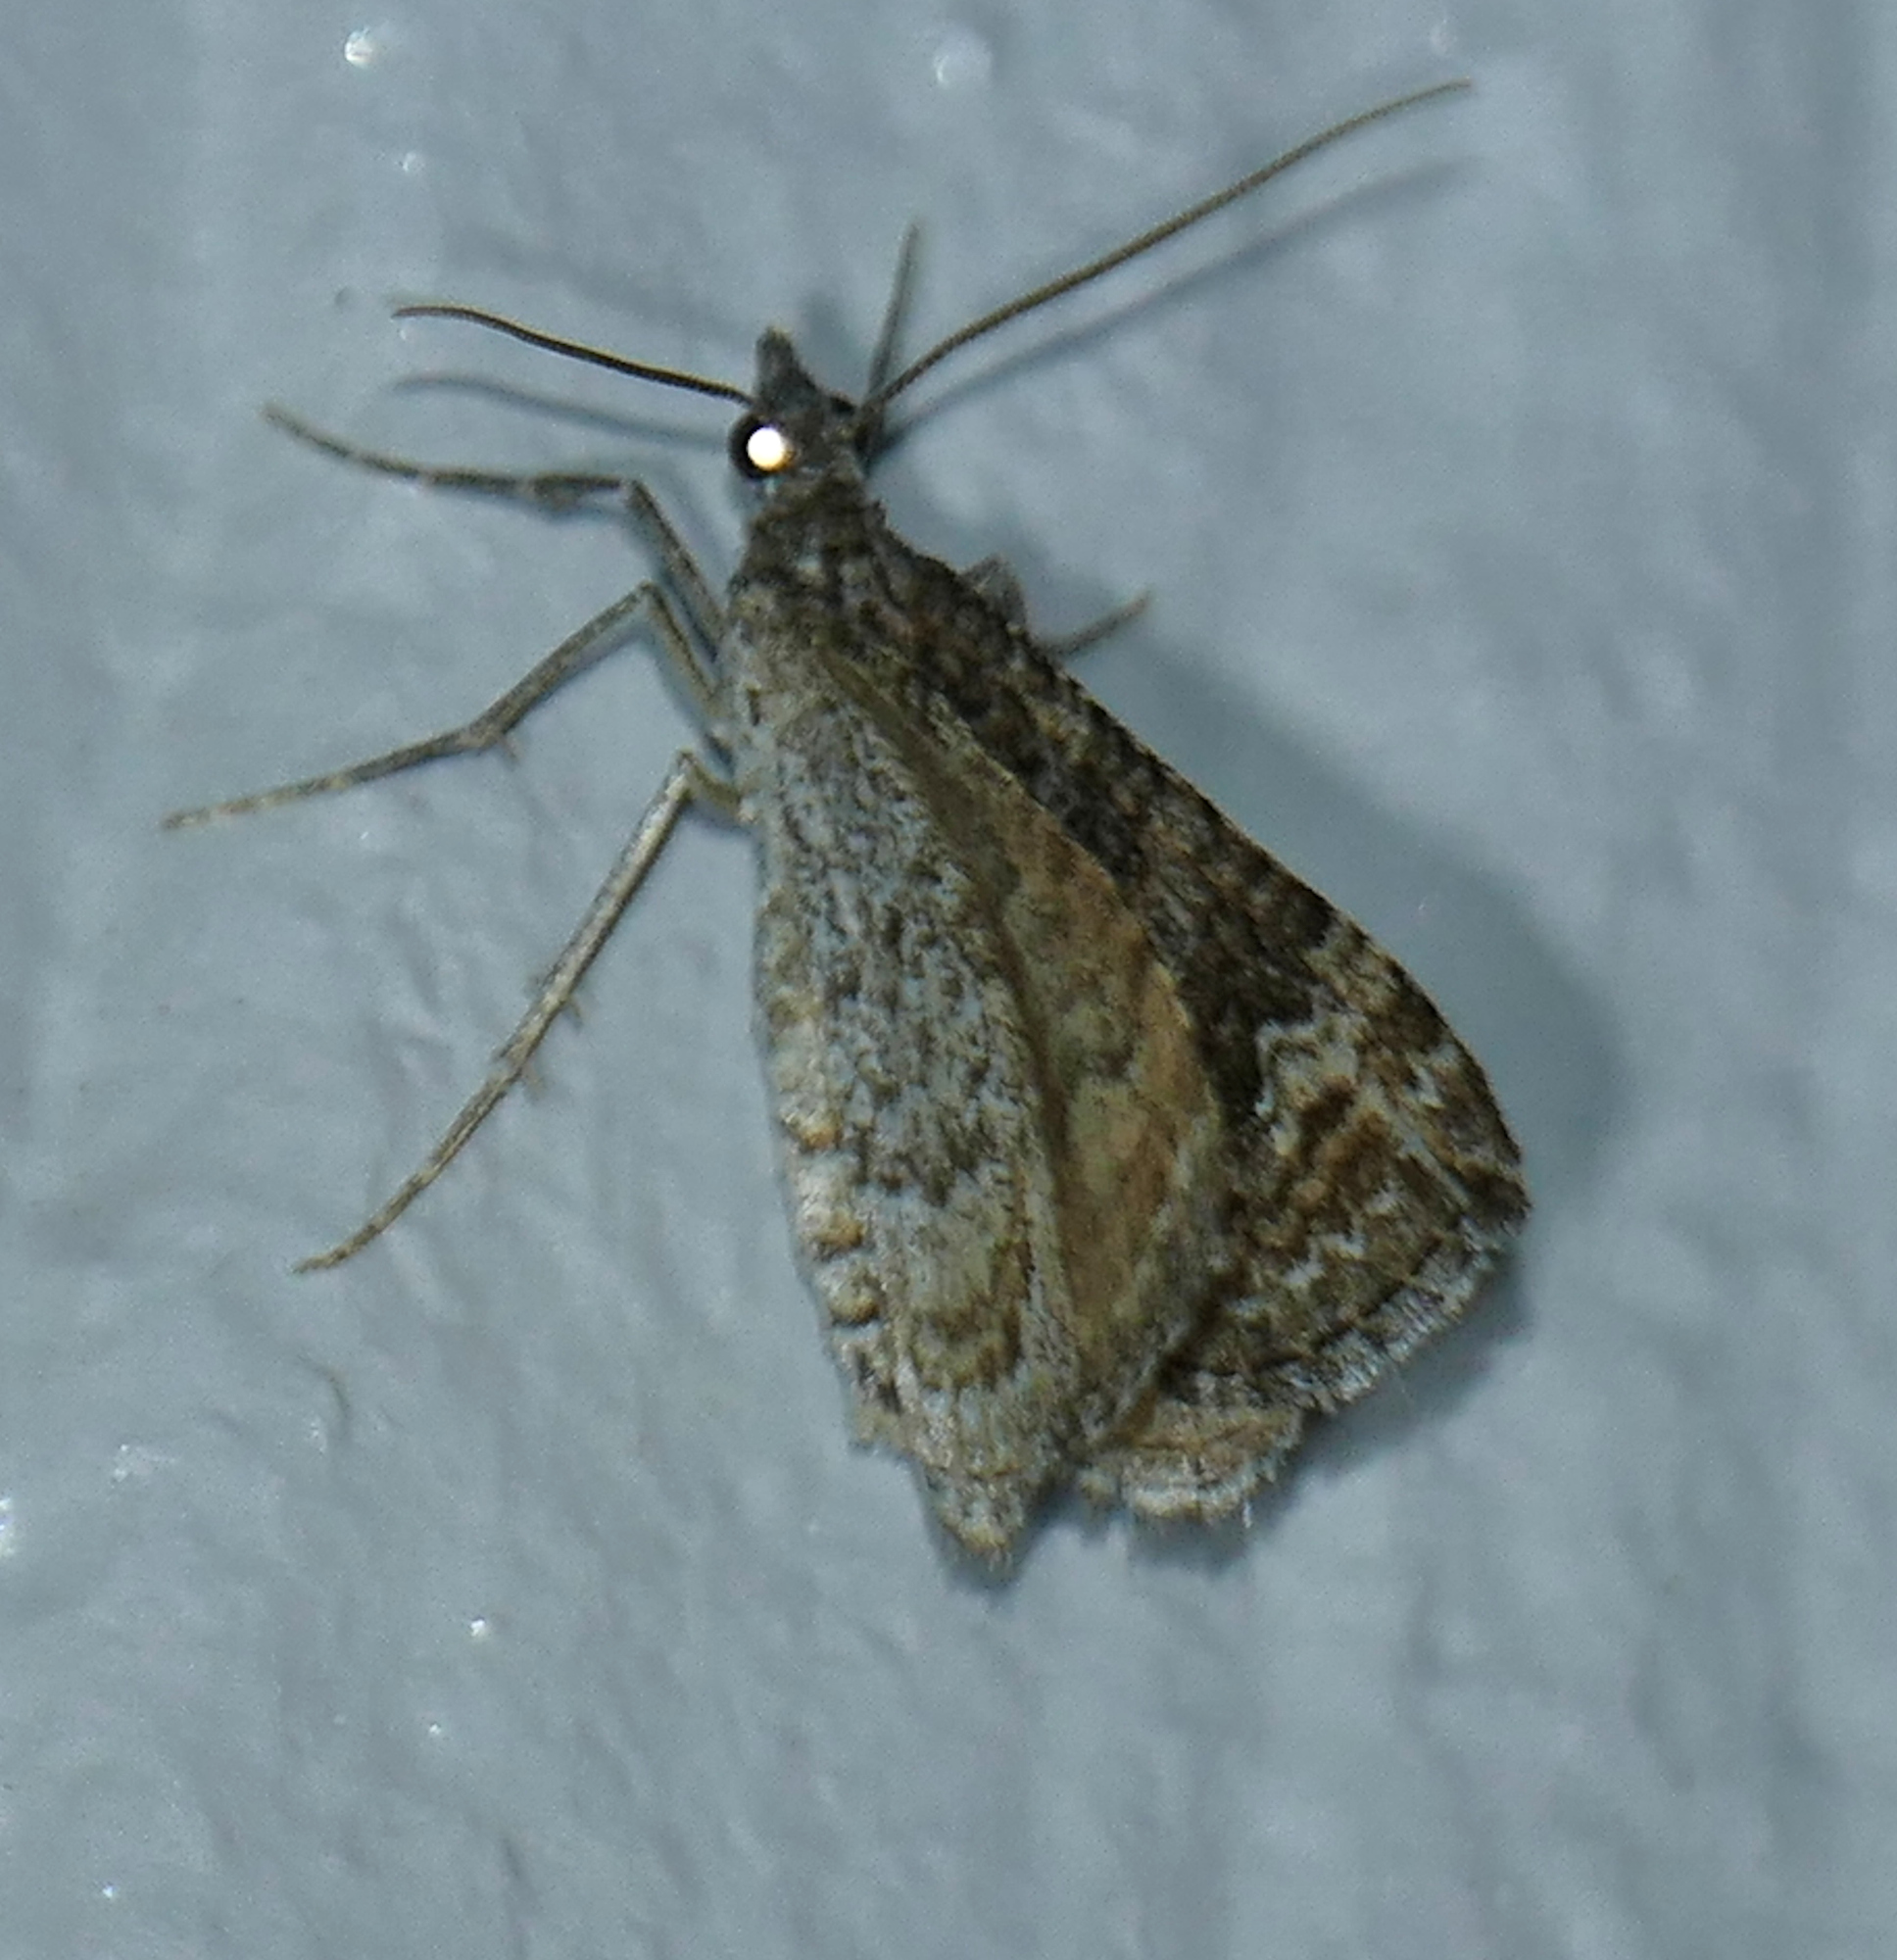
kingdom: Animalia
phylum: Arthropoda
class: Insecta
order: Lepidoptera
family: Geometridae
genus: Perizoma
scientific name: Perizoma custodiata
